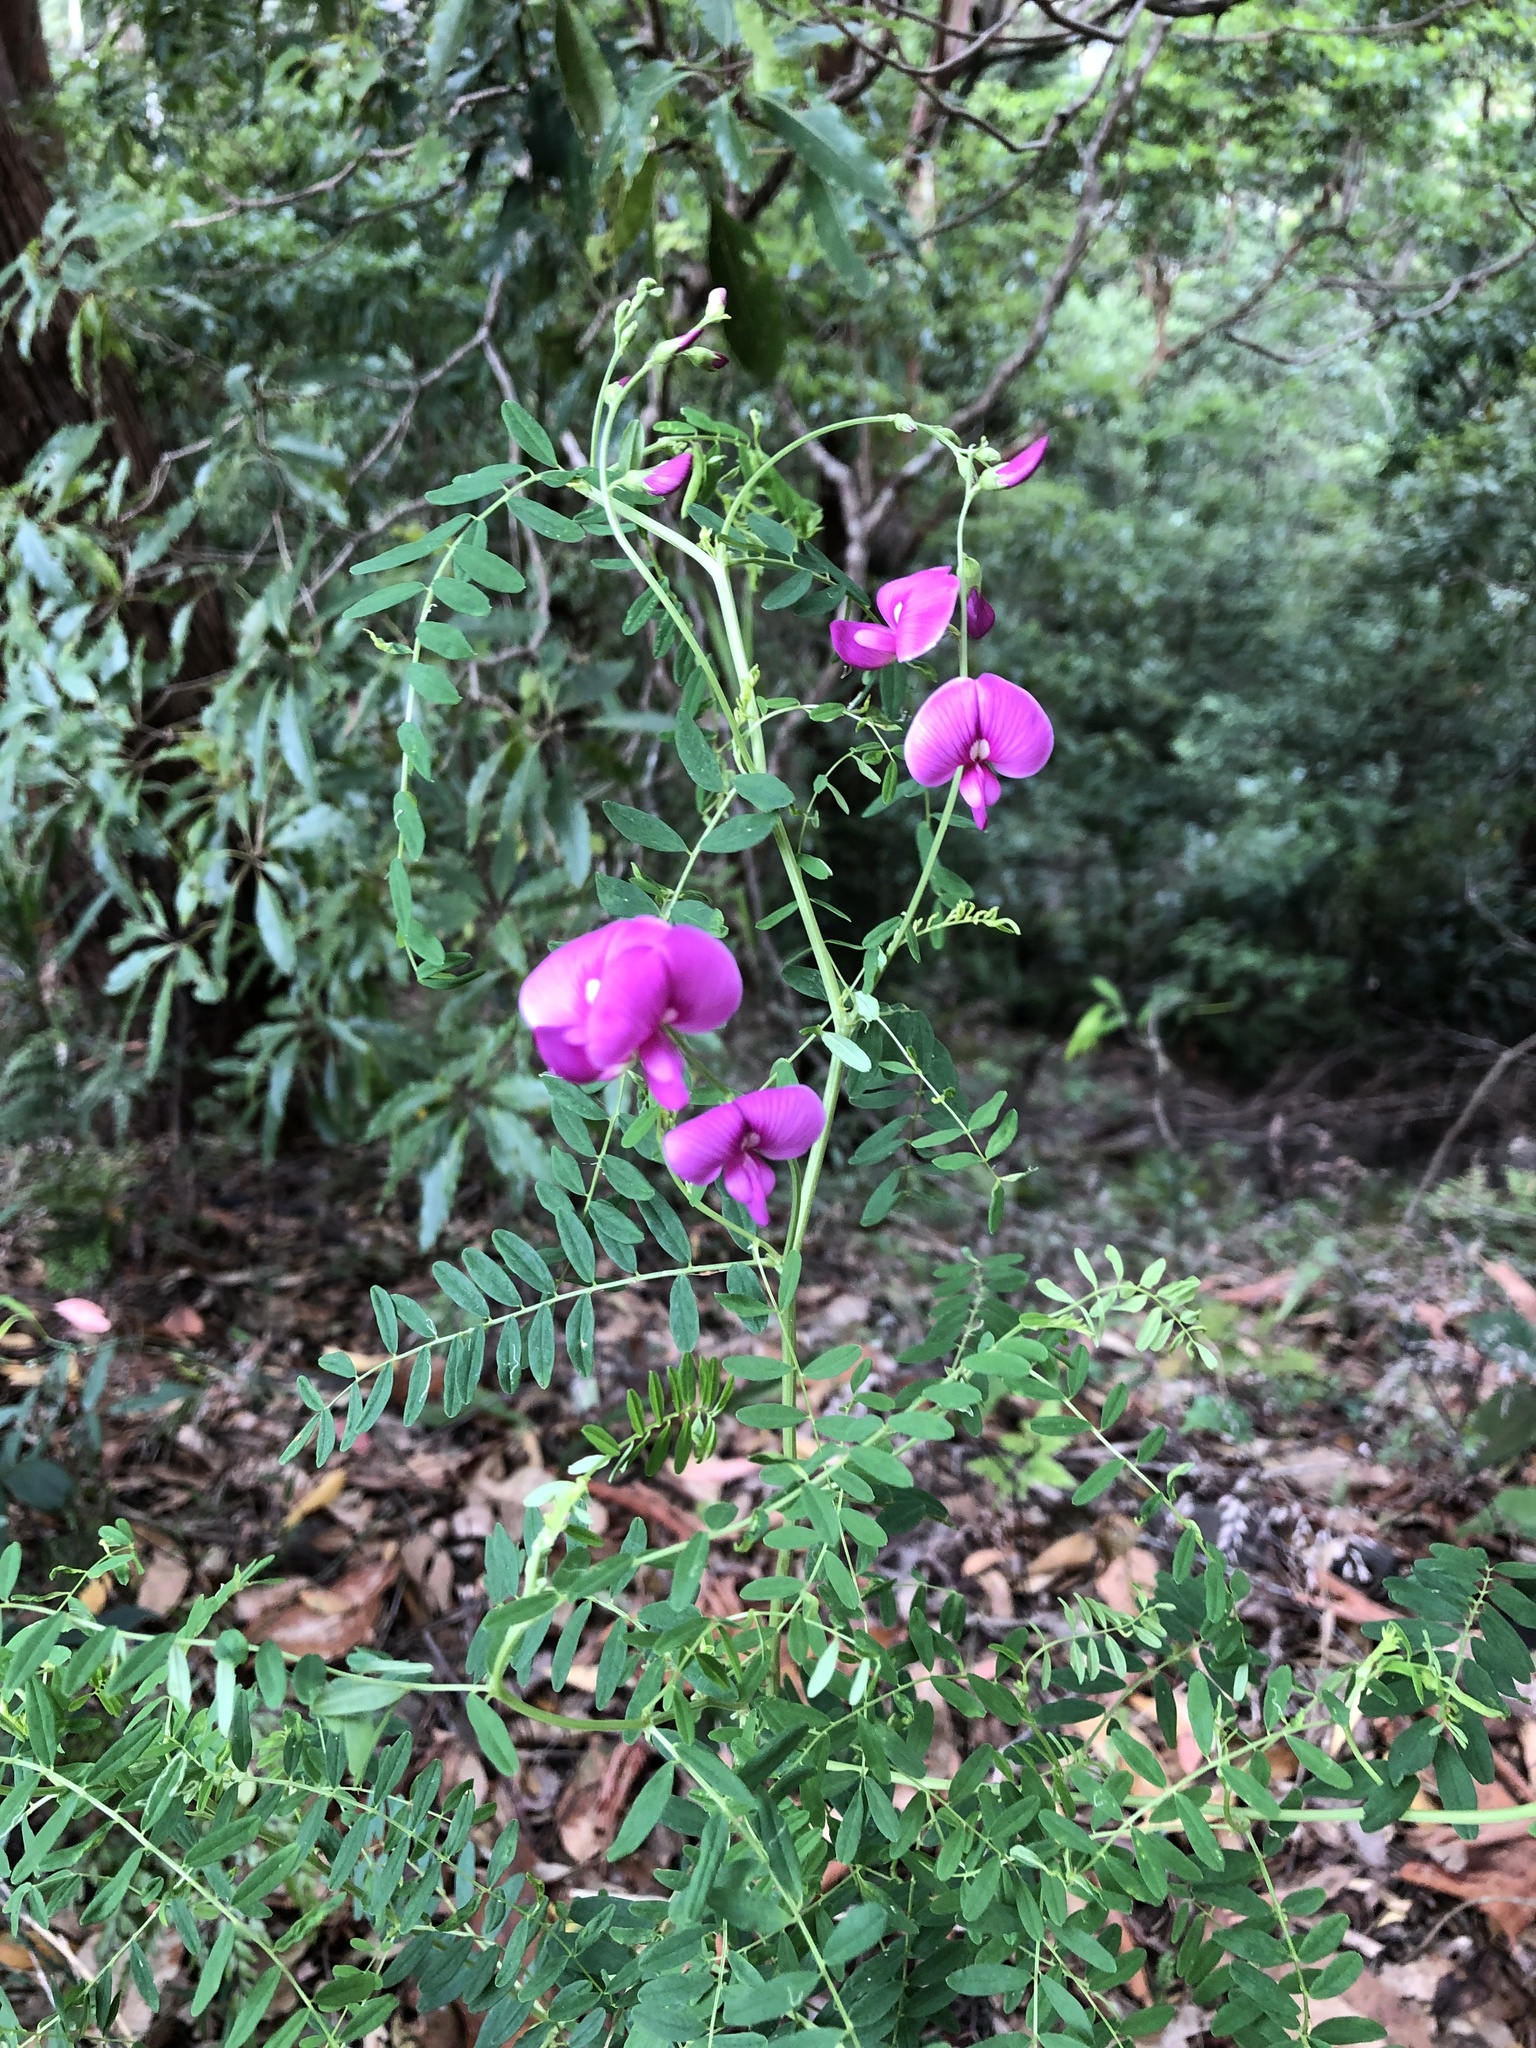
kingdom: Plantae
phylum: Tracheophyta
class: Magnoliopsida
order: Fabales
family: Fabaceae
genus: Swainsona
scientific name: Swainsona galegifolia
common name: Swanflower
